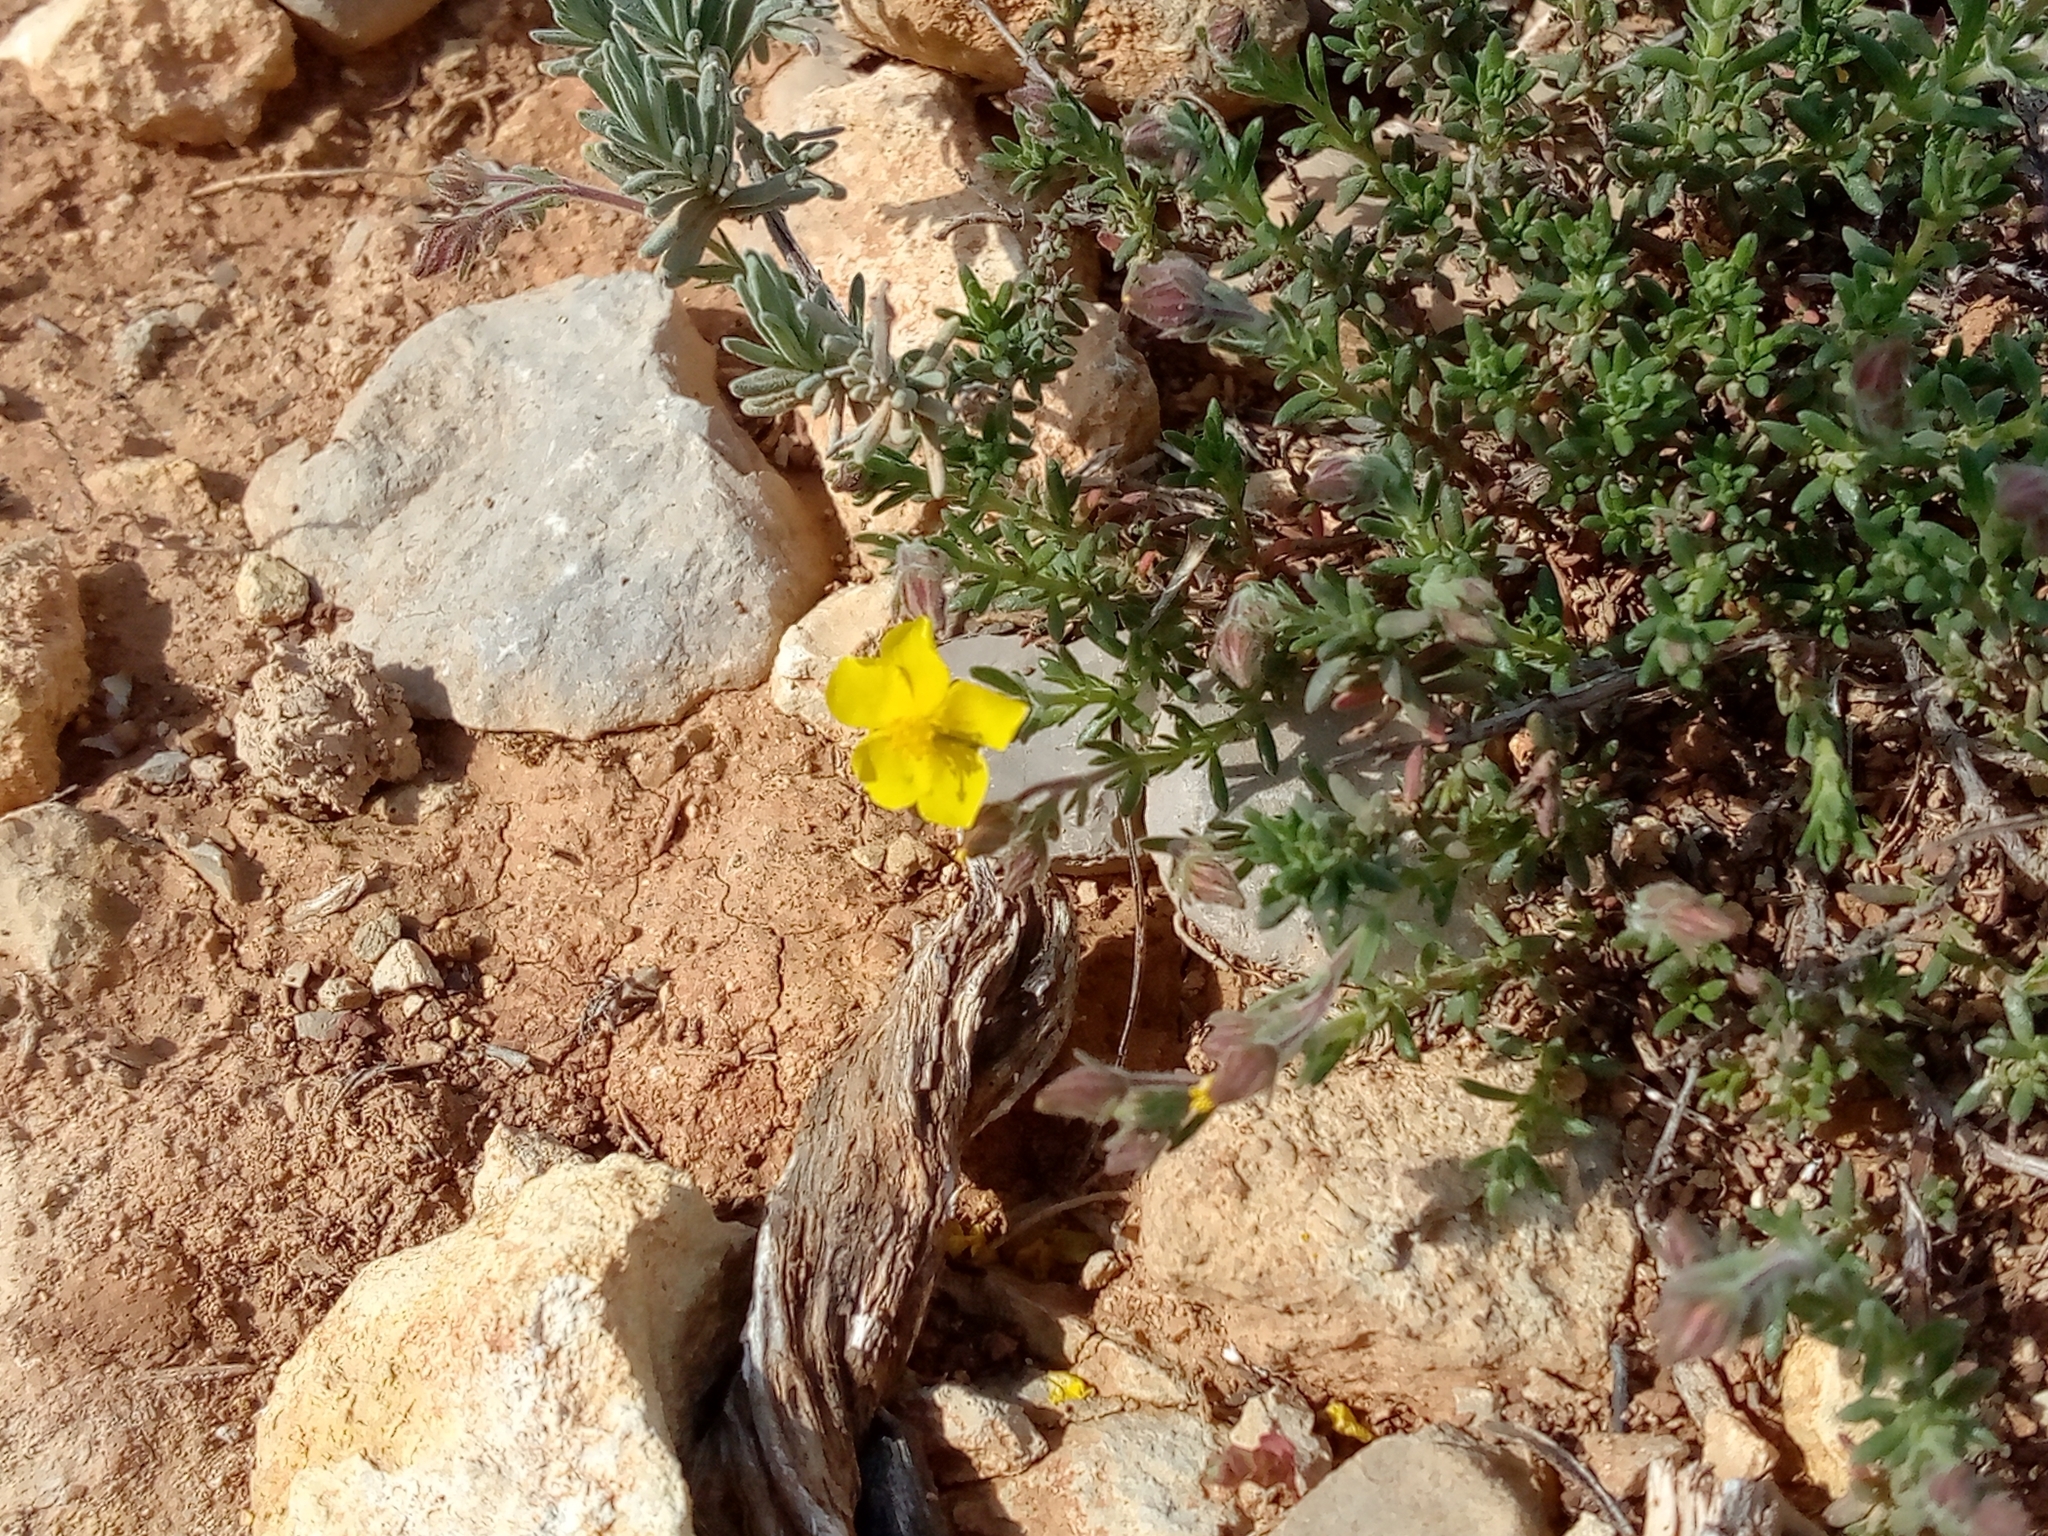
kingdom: Plantae
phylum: Tracheophyta
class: Magnoliopsida
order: Malvales
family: Cistaceae
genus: Fumana
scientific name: Fumana thymifolia
